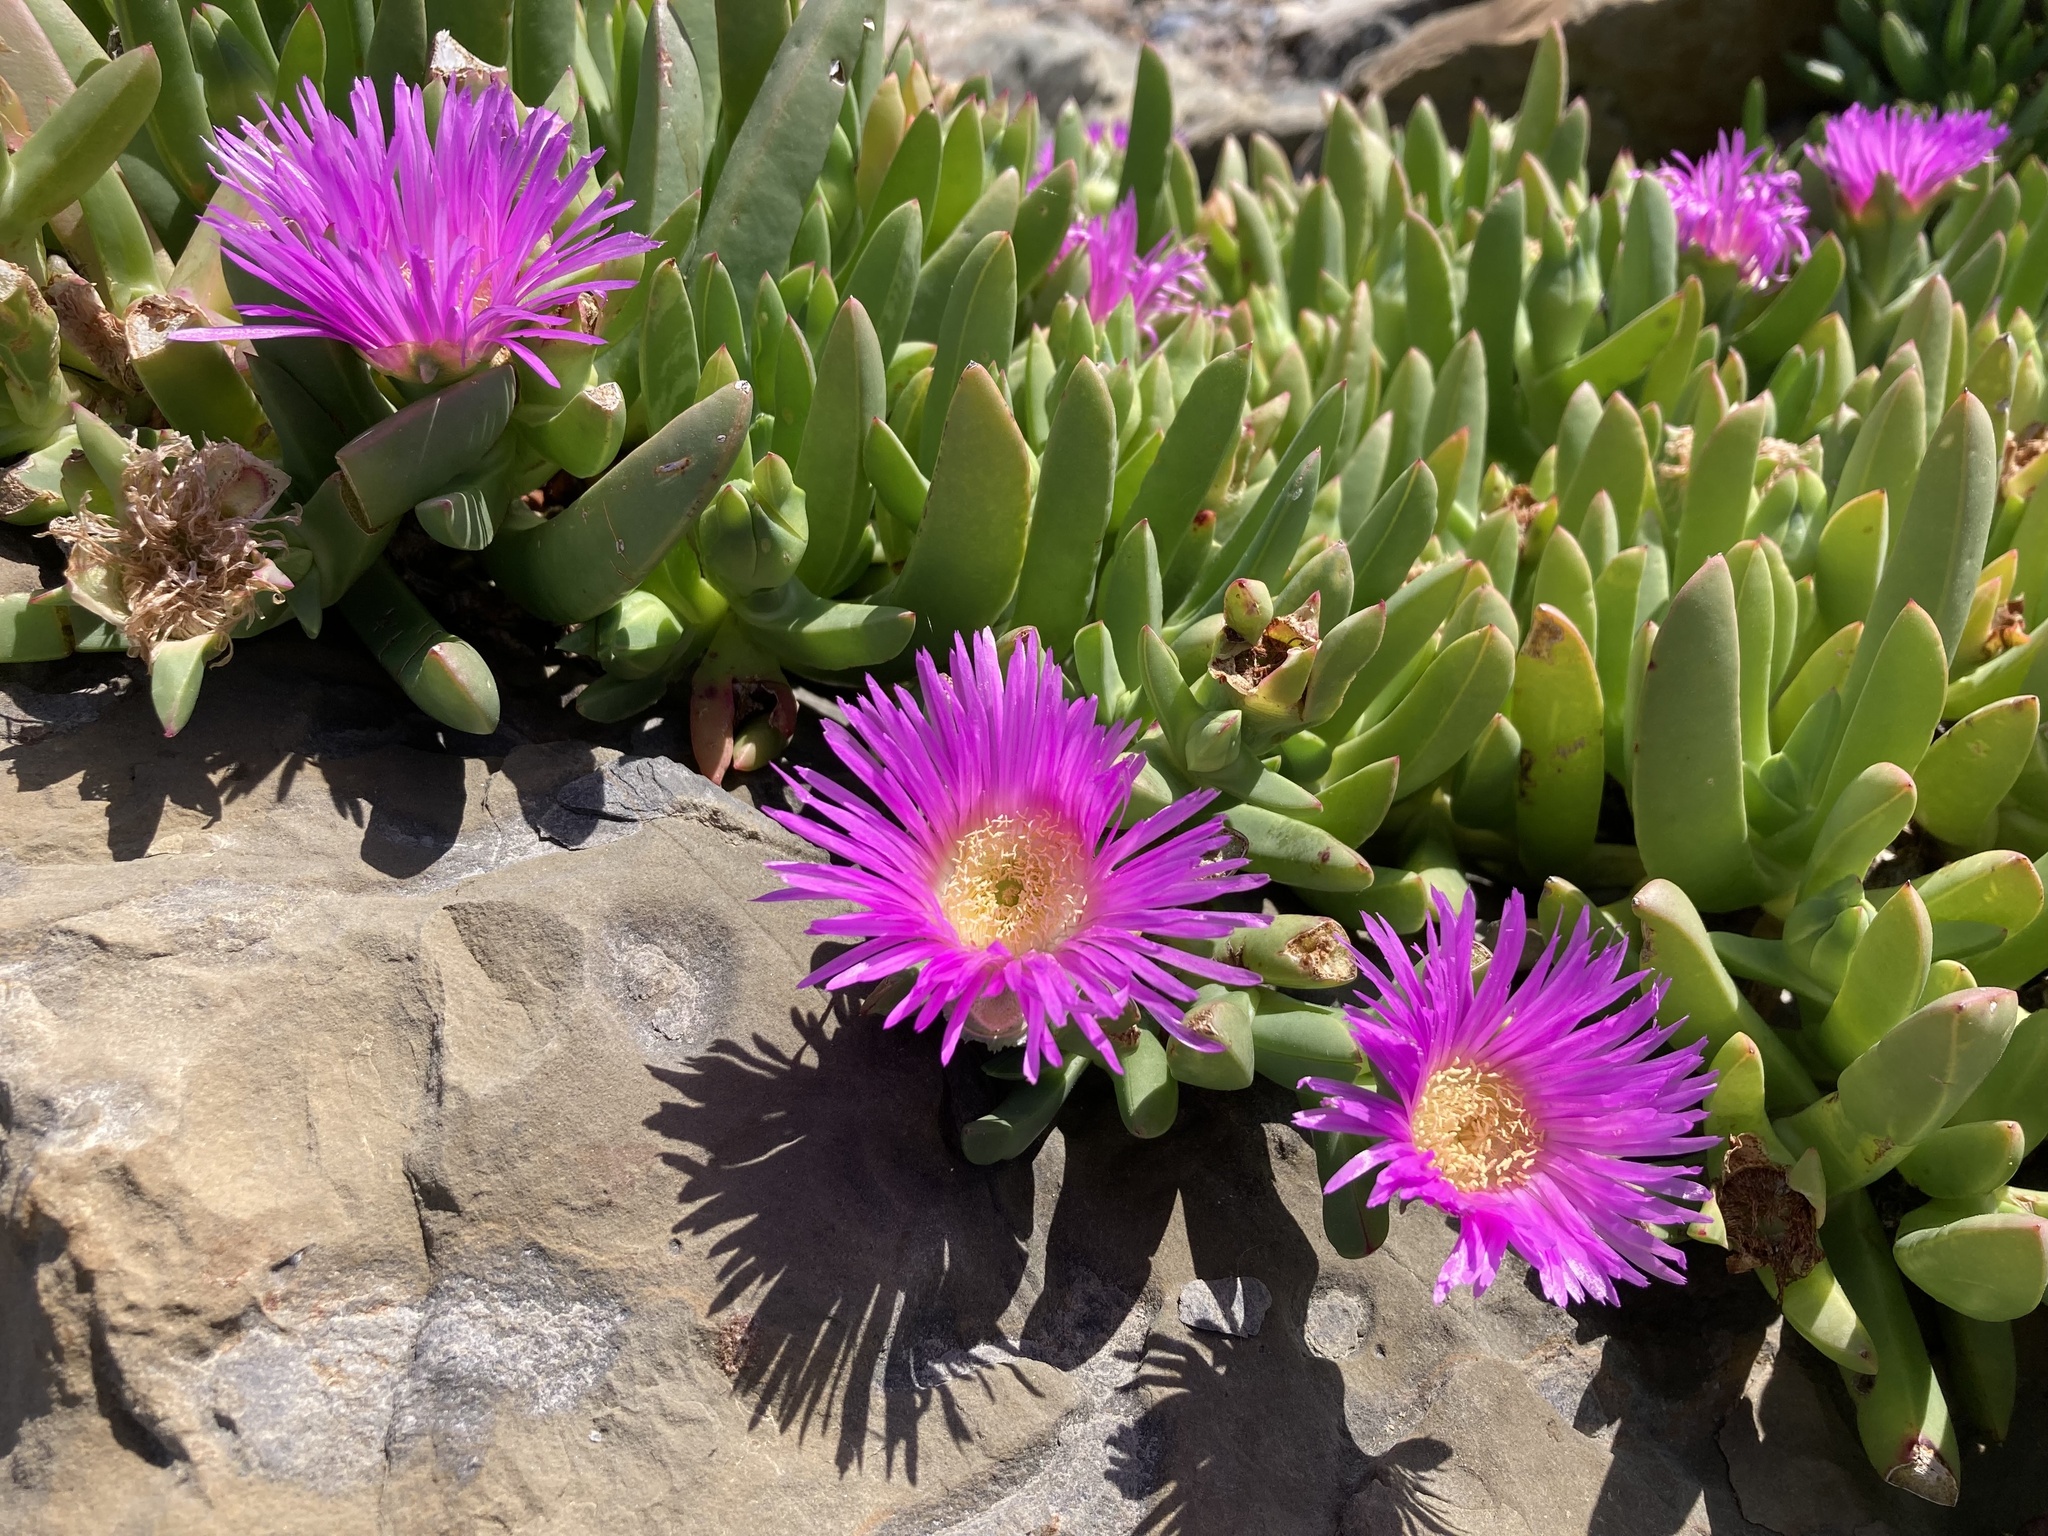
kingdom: Plantae
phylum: Tracheophyta
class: Magnoliopsida
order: Caryophyllales
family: Aizoaceae
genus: Carpobrotus
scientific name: Carpobrotus rossii
